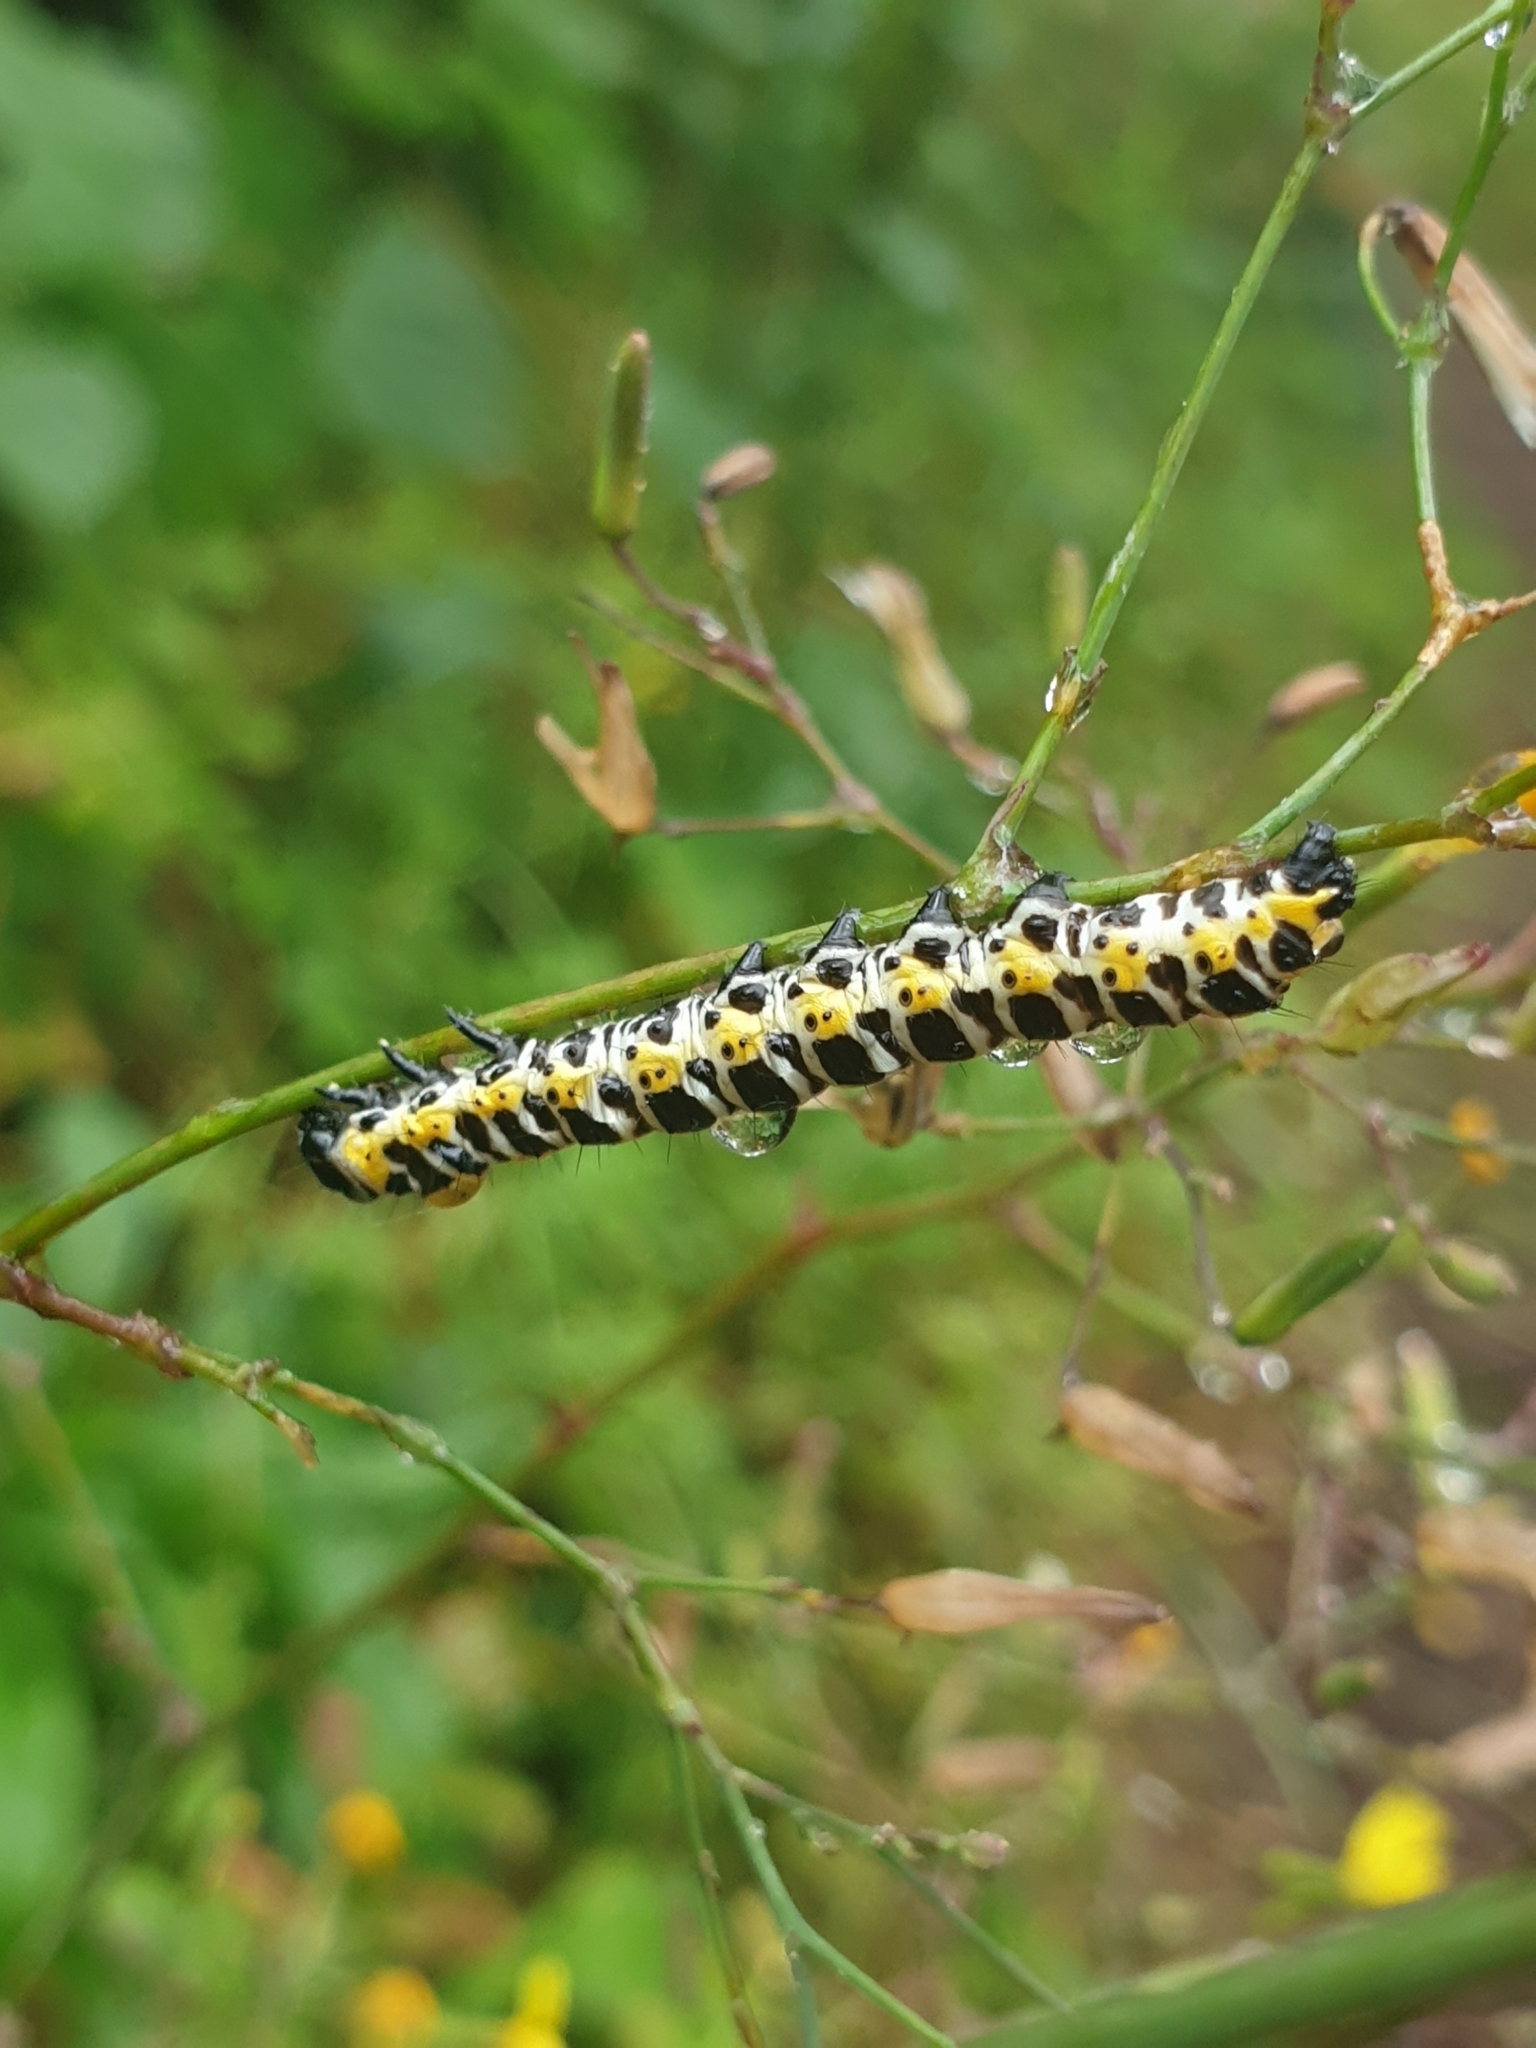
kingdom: Animalia
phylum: Arthropoda
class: Insecta
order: Lepidoptera
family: Noctuidae
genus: Cucullia
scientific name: Cucullia lactucae
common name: Lettuce shark
